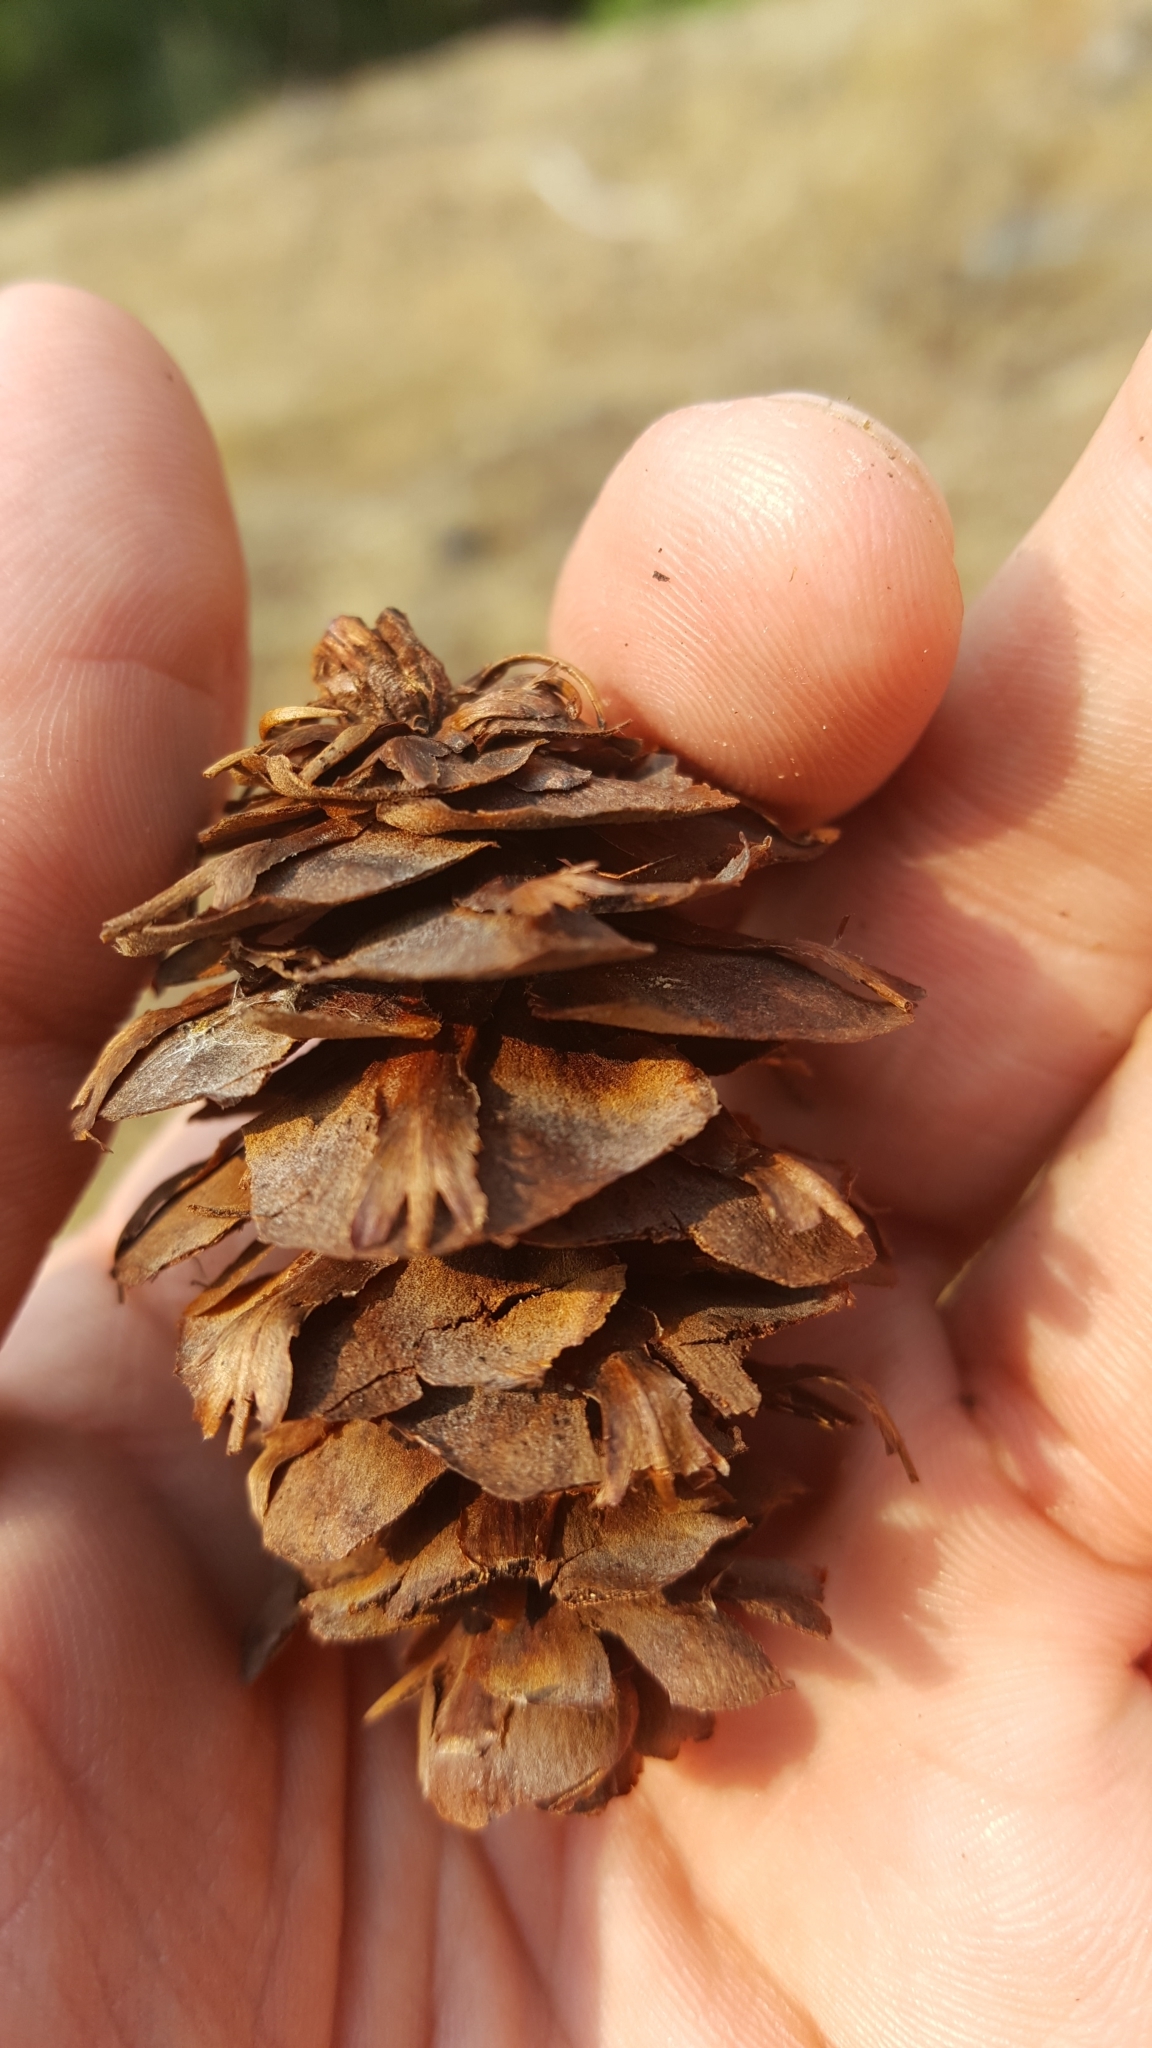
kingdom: Plantae
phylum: Tracheophyta
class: Pinopsida
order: Pinales
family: Pinaceae
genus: Pseudotsuga
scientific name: Pseudotsuga menziesii
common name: Douglas fir
